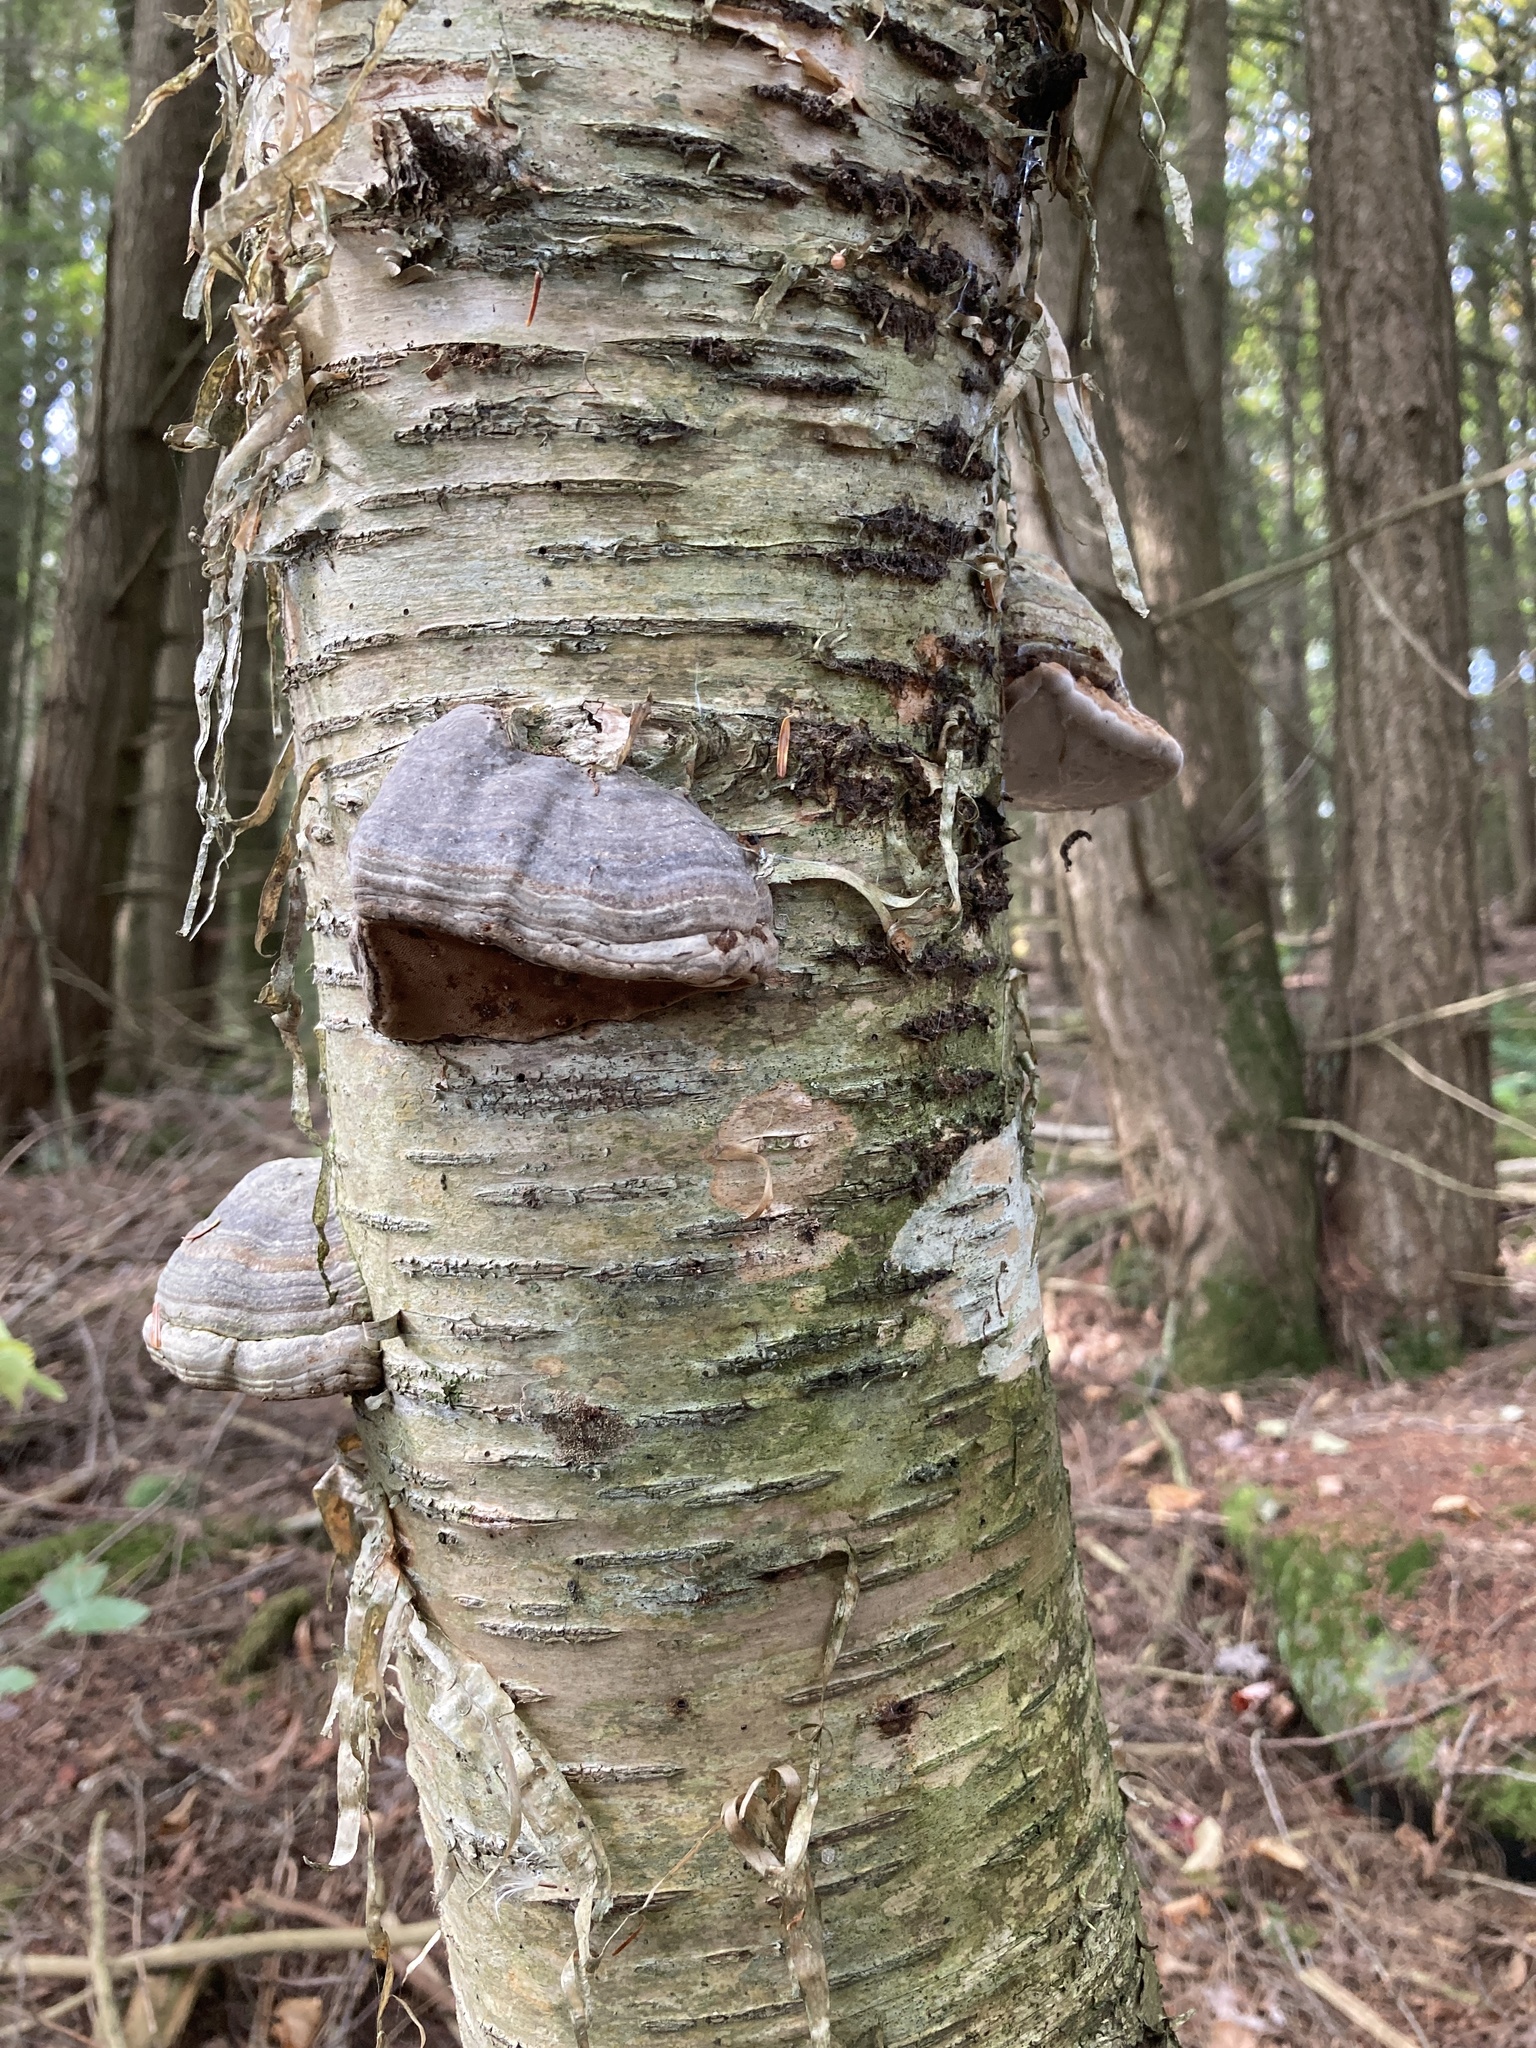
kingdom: Fungi
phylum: Basidiomycota
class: Agaricomycetes
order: Polyporales
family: Polyporaceae
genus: Fomes
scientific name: Fomes fomentarius
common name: Hoof fungus
